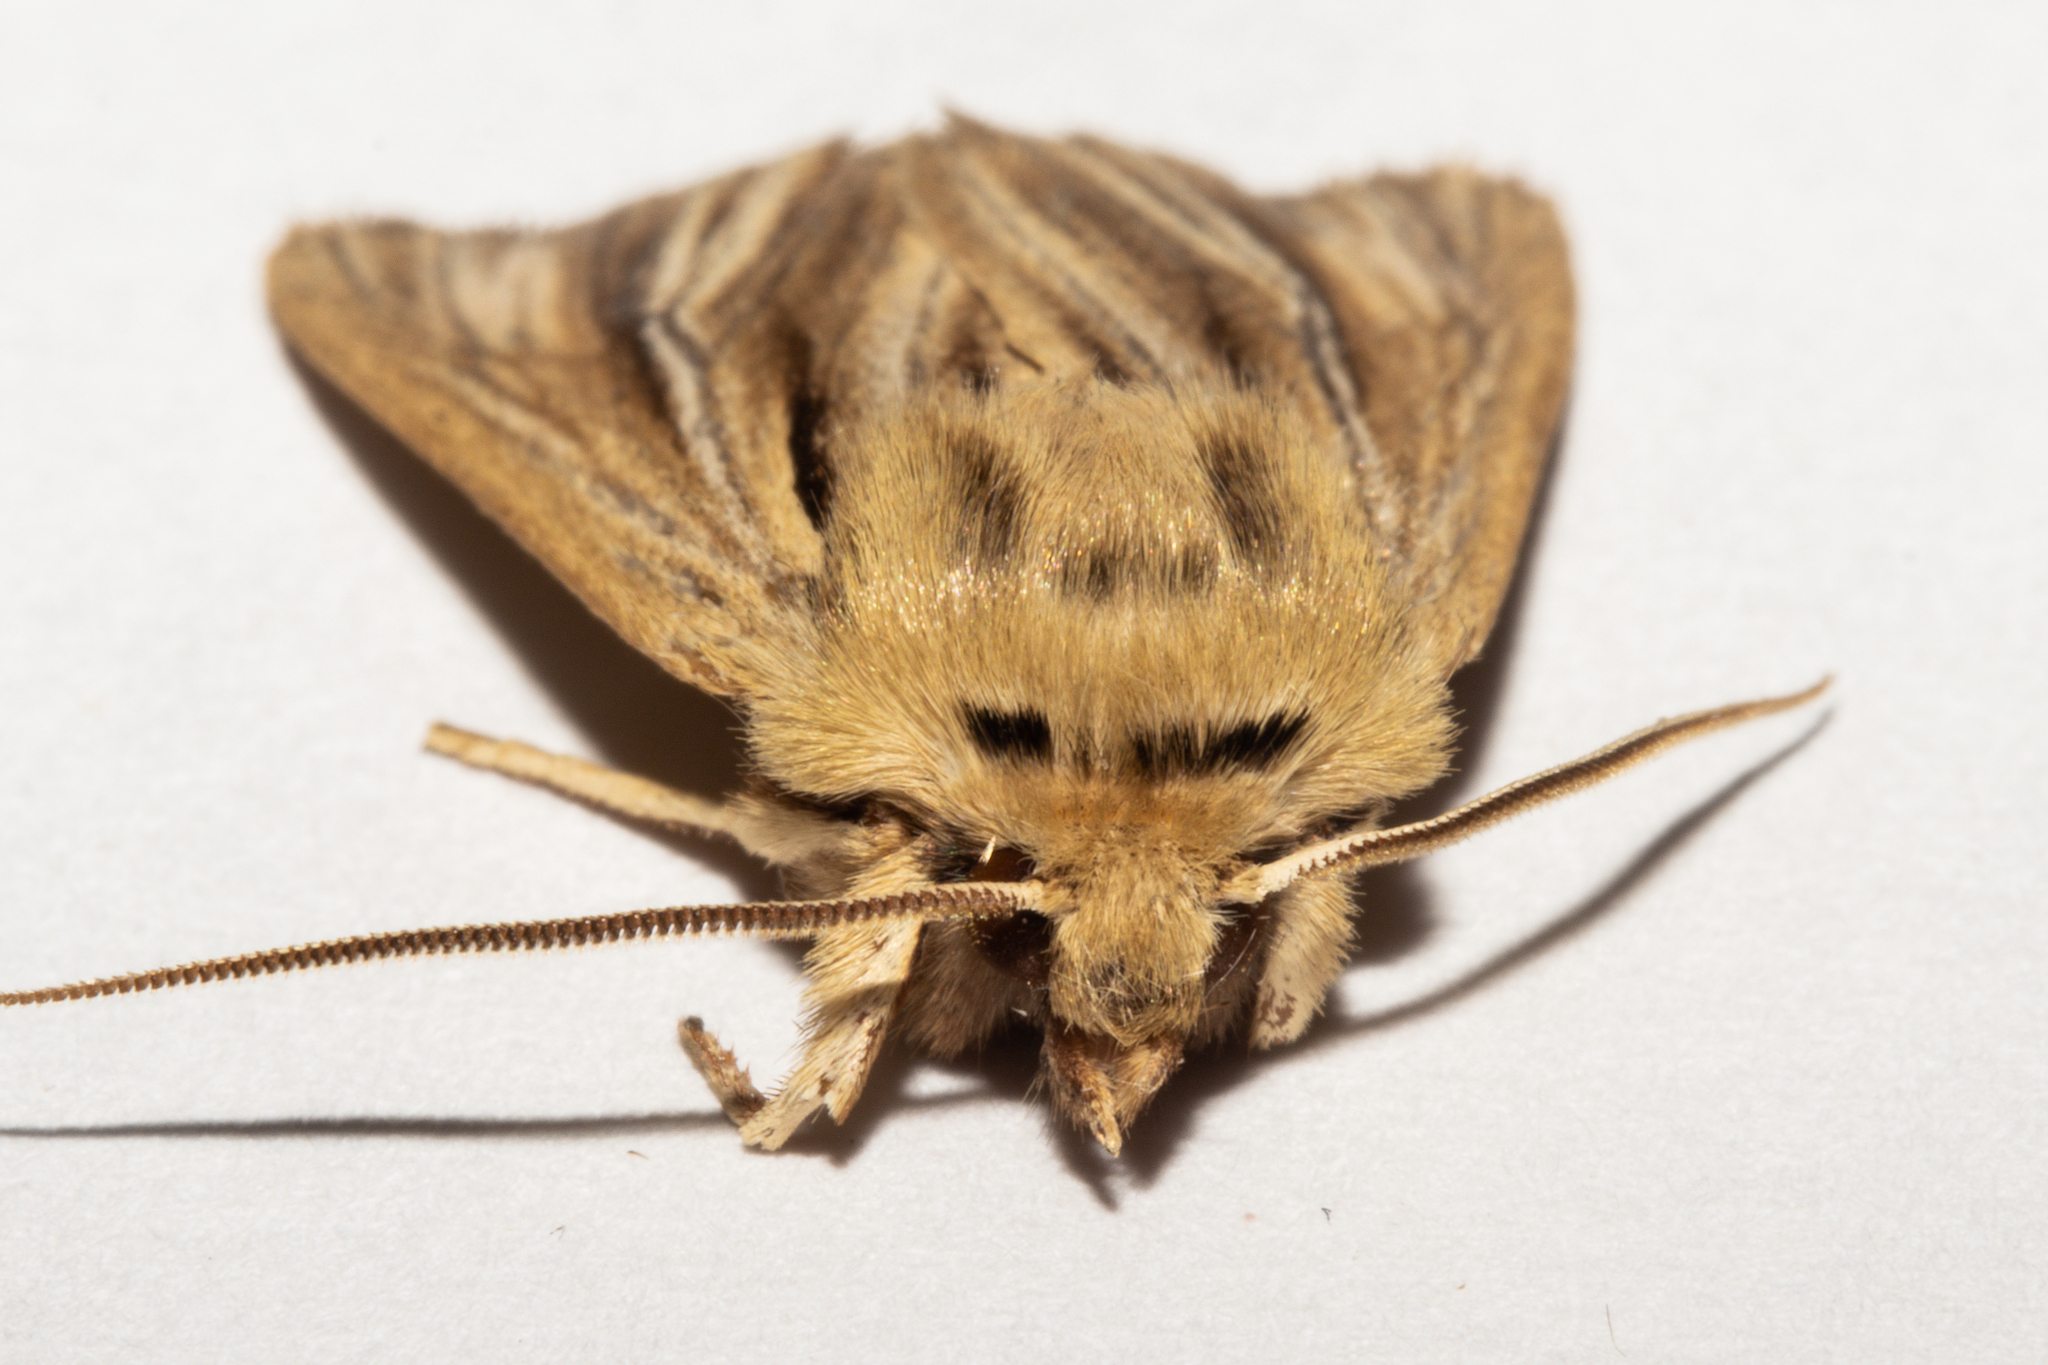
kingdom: Animalia
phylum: Arthropoda
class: Insecta
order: Lepidoptera
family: Noctuidae
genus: Ichneutica
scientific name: Ichneutica
